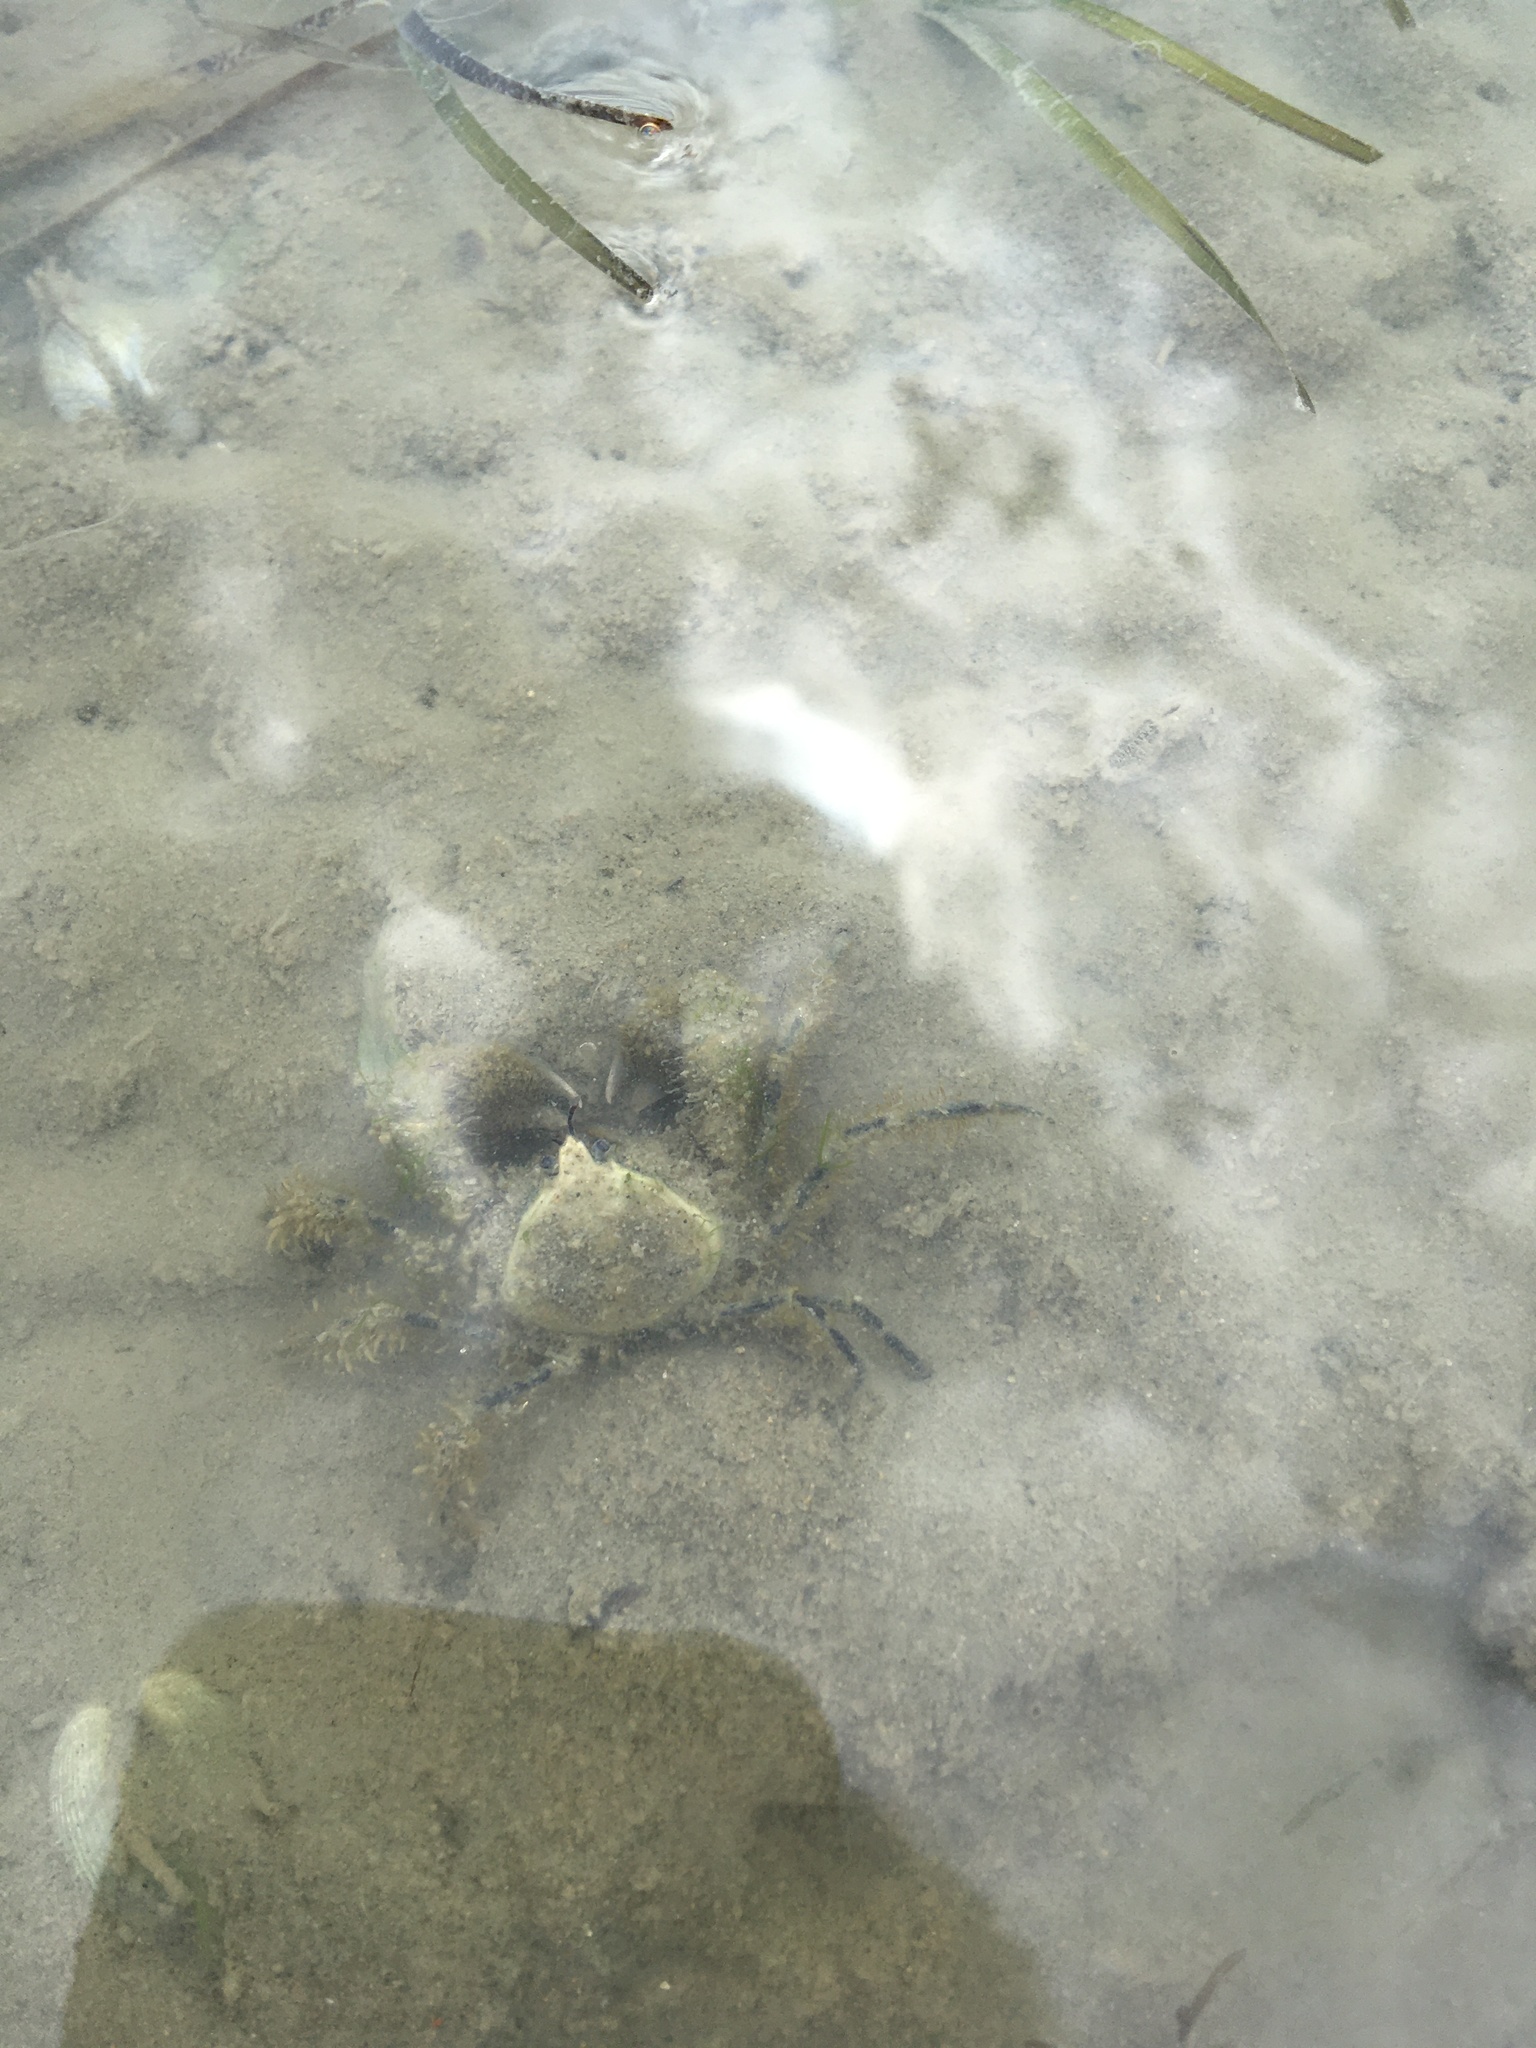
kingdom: Animalia
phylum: Arthropoda
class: Malacostraca
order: Decapoda
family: Hymenosomatidae
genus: Halicarcinus
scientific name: Halicarcinus whitei
